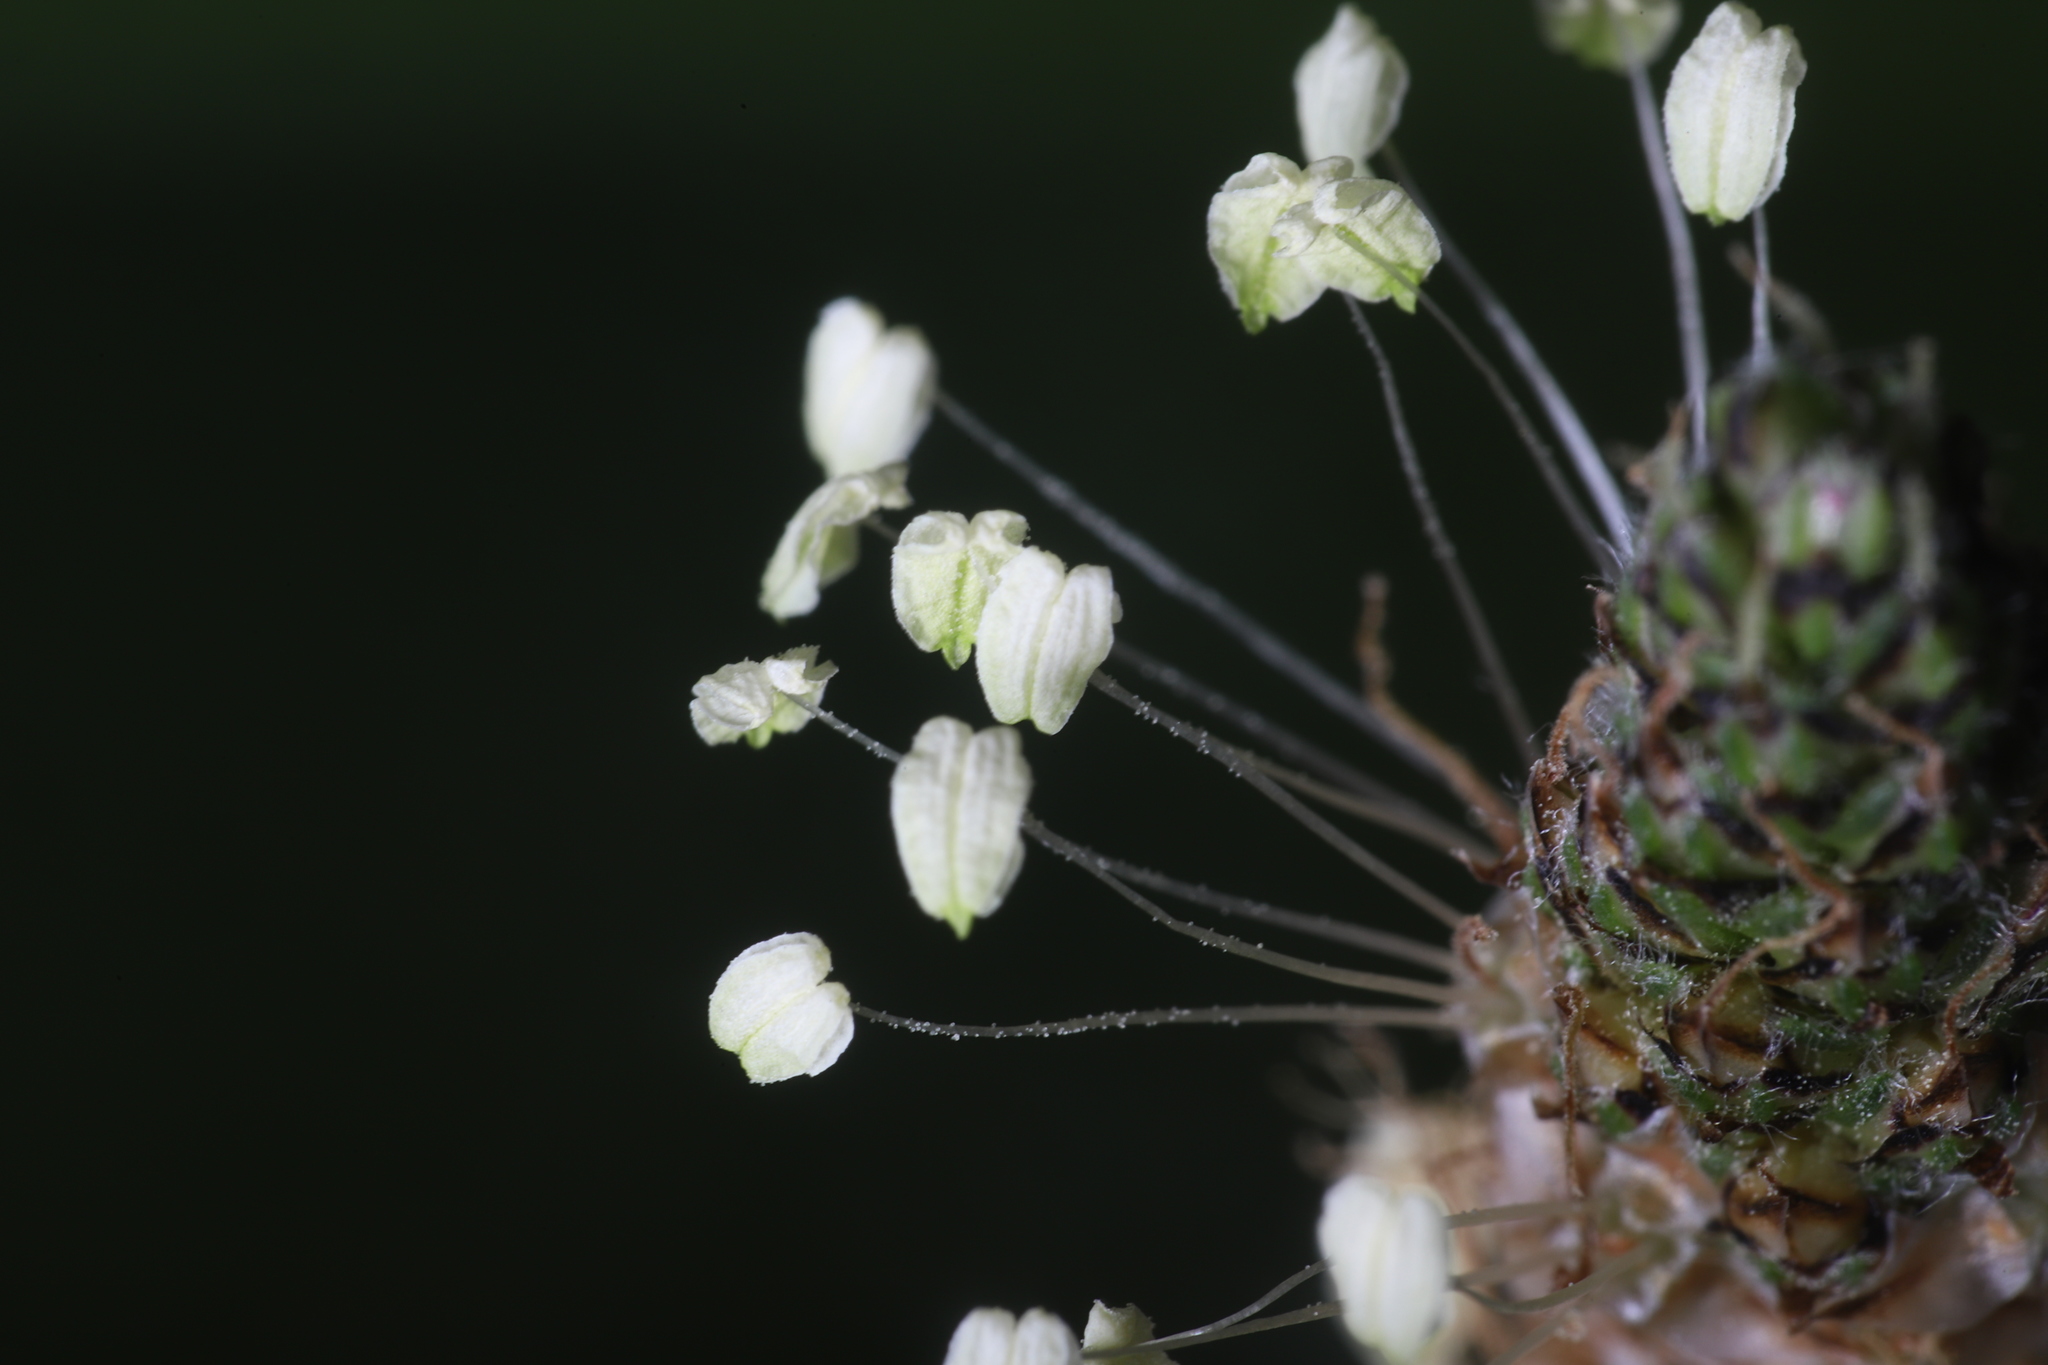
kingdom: Plantae
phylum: Tracheophyta
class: Magnoliopsida
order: Lamiales
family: Plantaginaceae
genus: Plantago
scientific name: Plantago lanceolata
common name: Ribwort plantain
